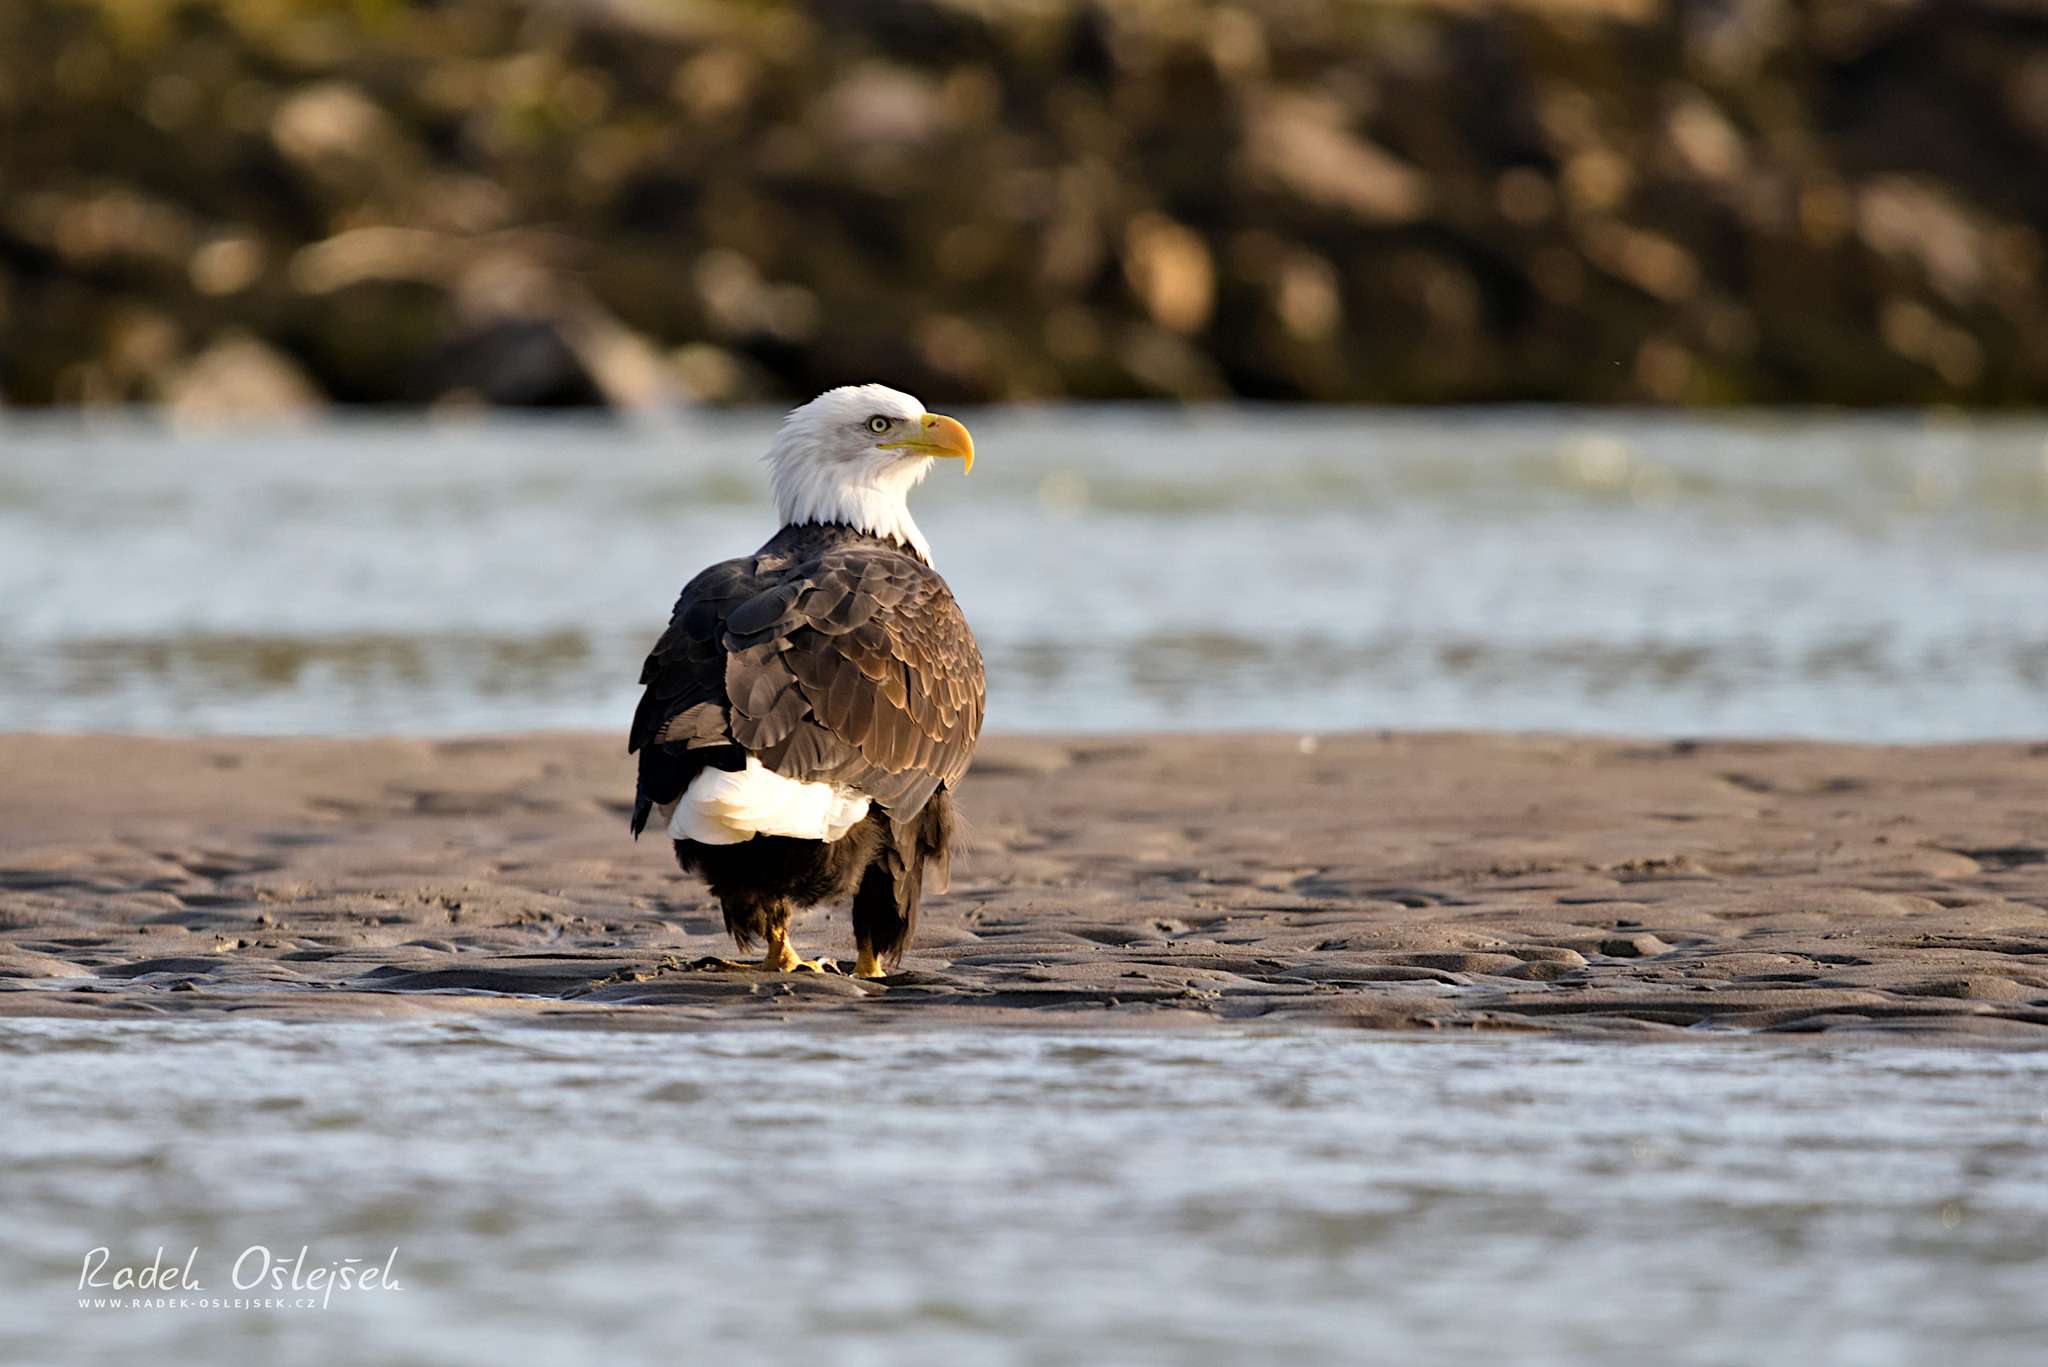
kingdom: Animalia
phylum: Chordata
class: Aves
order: Accipitriformes
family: Accipitridae
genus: Haliaeetus
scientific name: Haliaeetus leucocephalus
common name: Bald eagle
